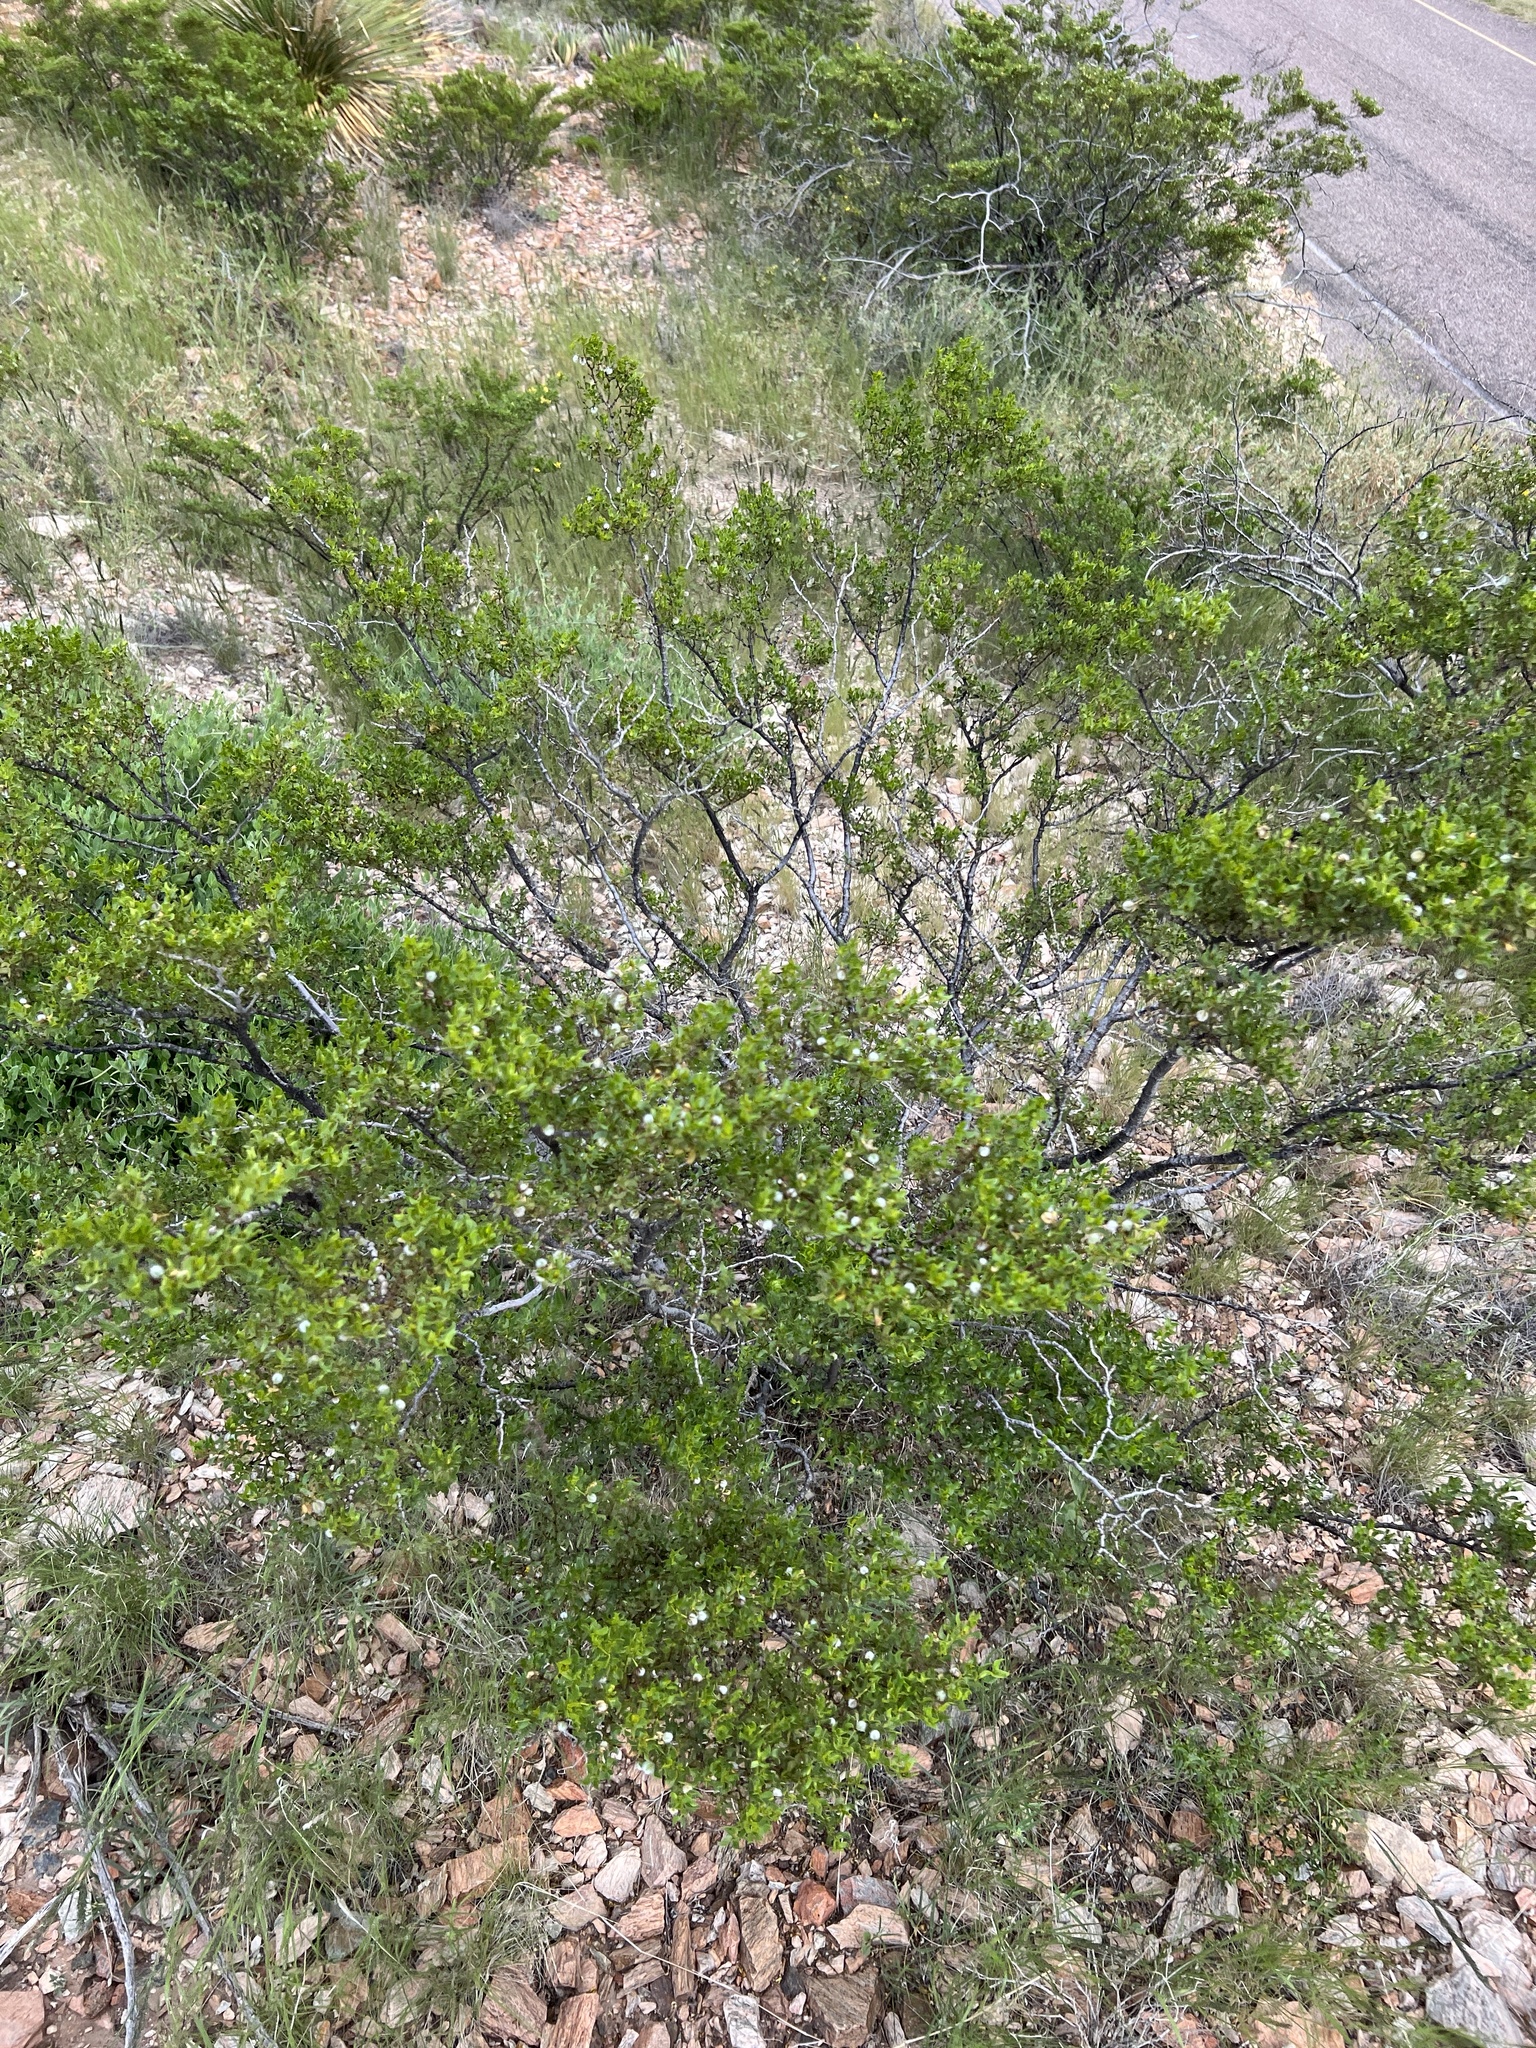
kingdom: Plantae
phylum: Tracheophyta
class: Magnoliopsida
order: Zygophyllales
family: Zygophyllaceae
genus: Larrea
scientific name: Larrea tridentata
